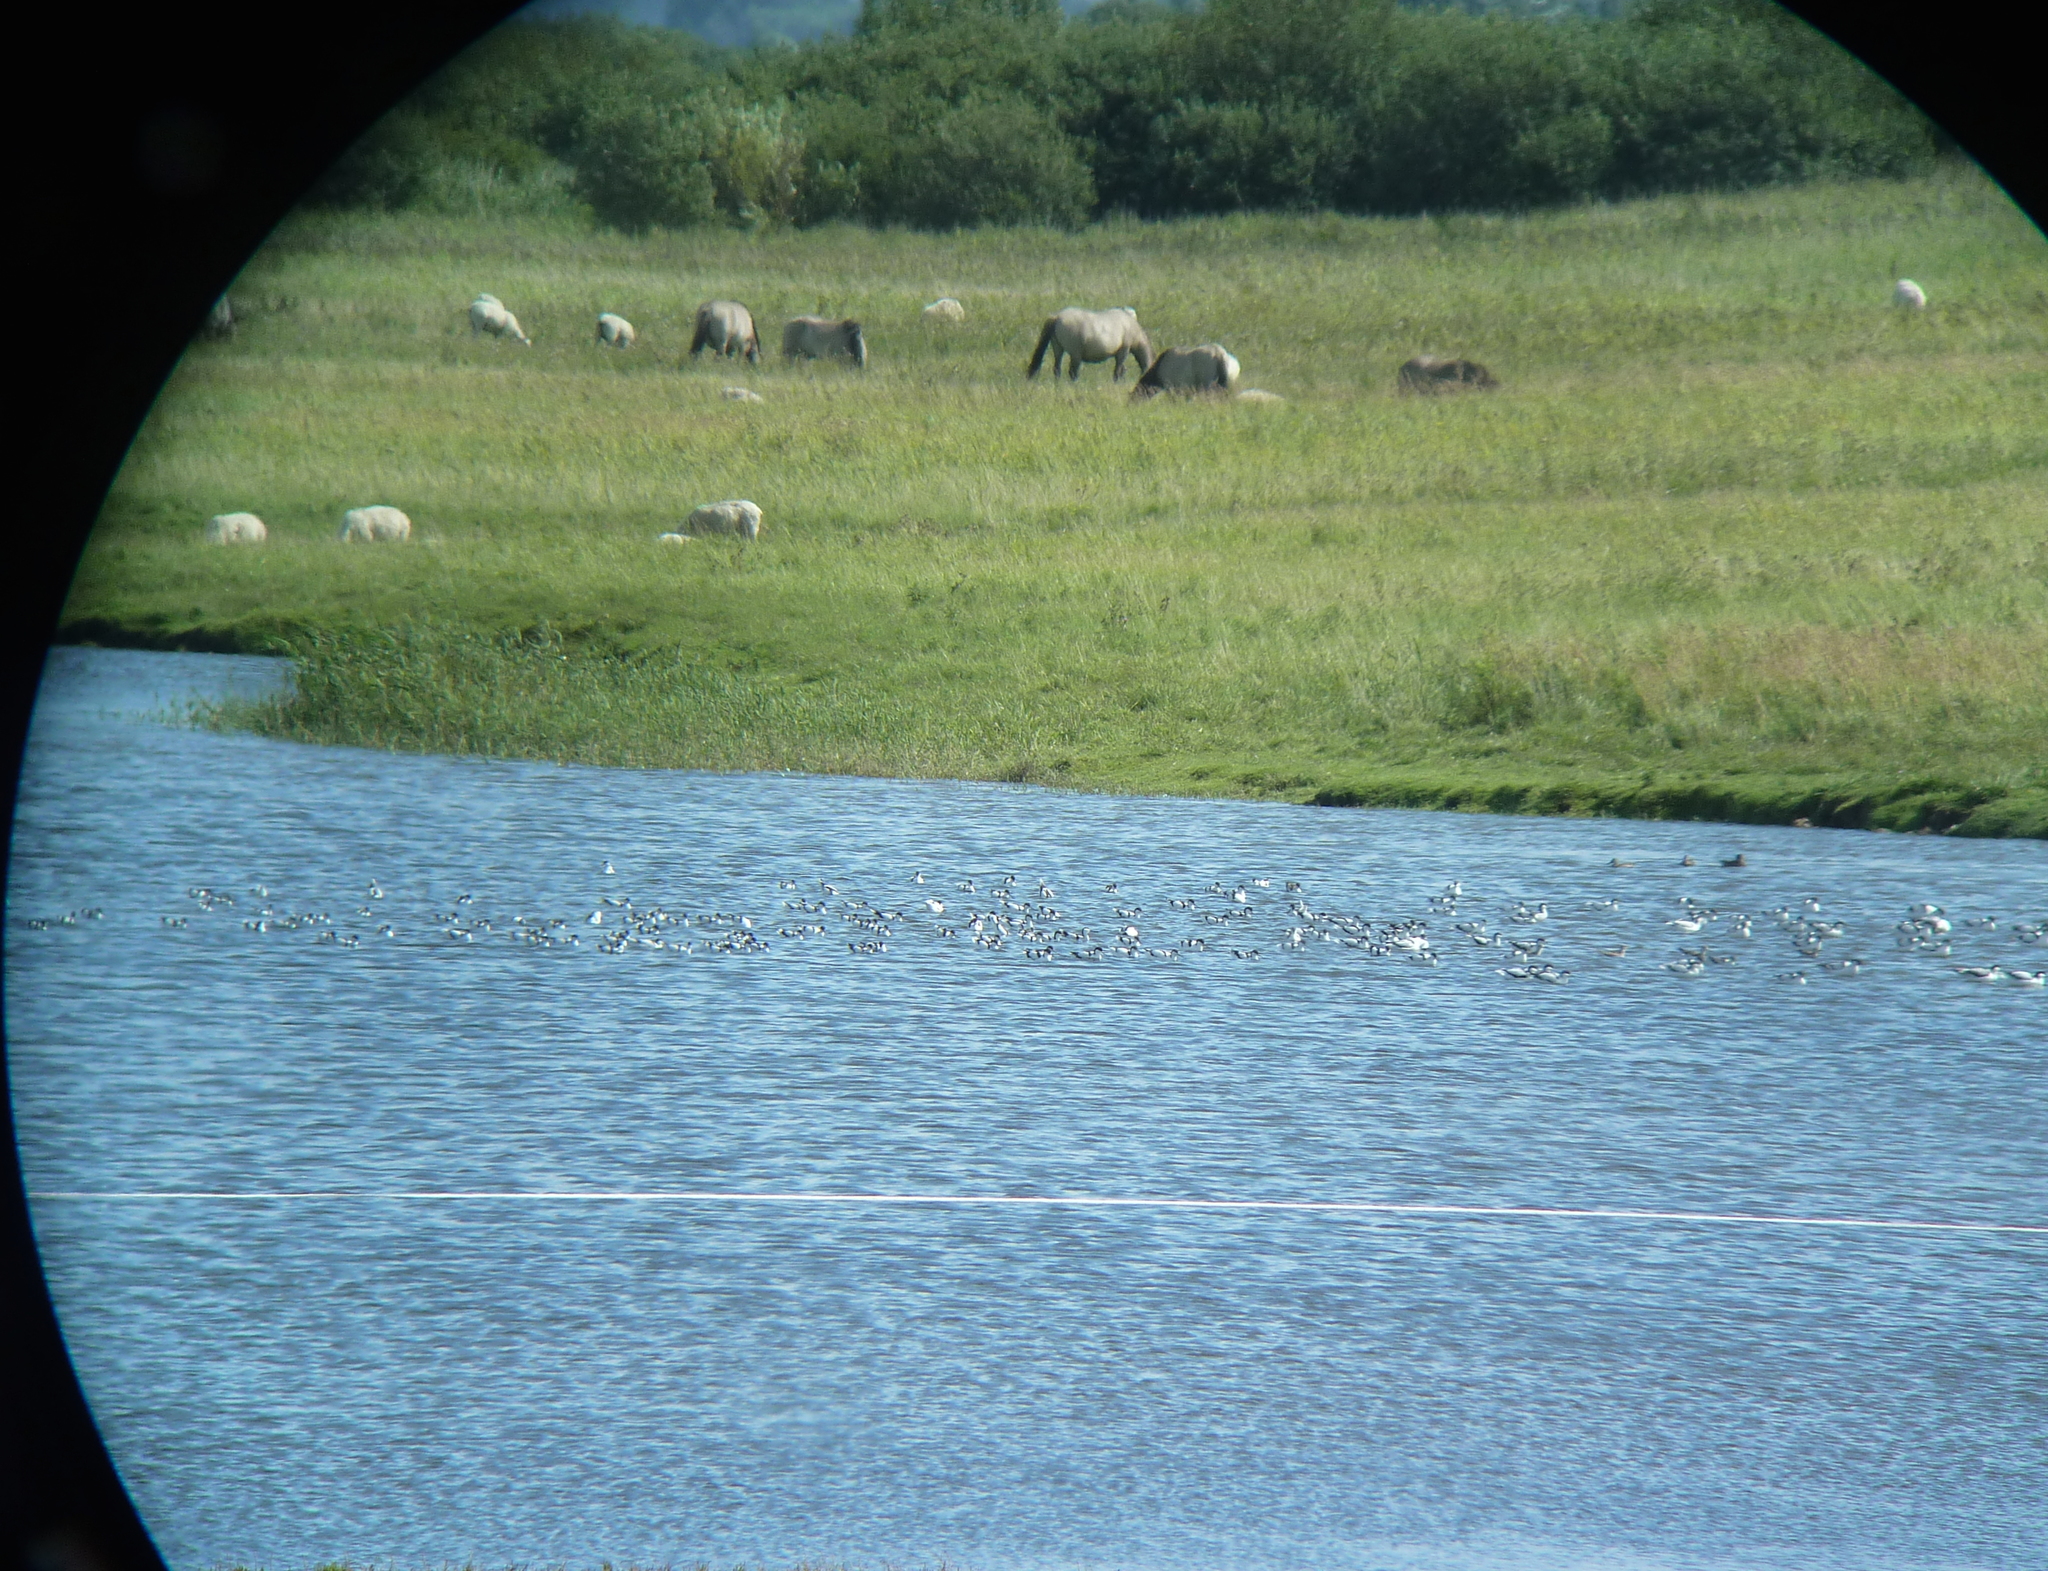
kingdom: Animalia
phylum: Chordata
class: Aves
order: Charadriiformes
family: Recurvirostridae
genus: Recurvirostra
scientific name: Recurvirostra avosetta
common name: Pied avocet
